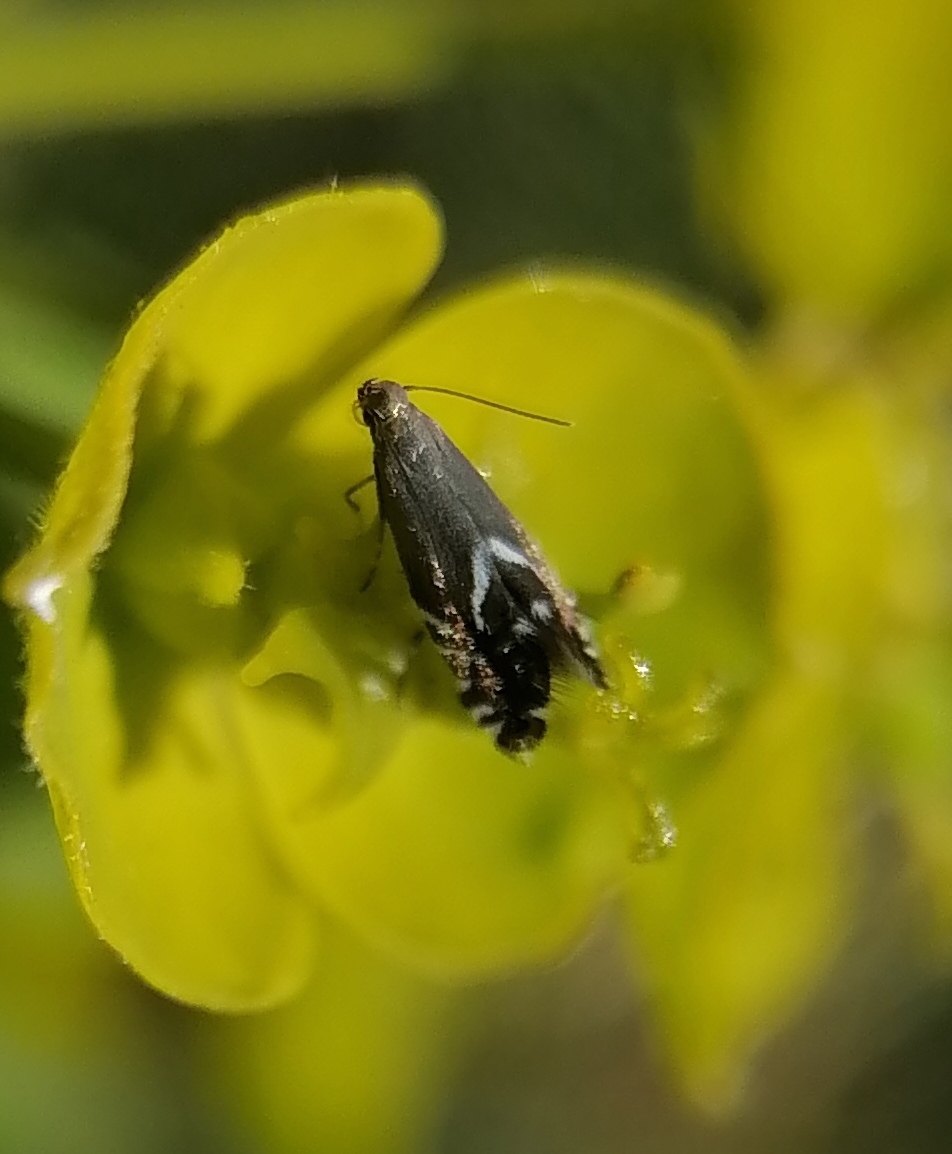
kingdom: Animalia
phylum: Arthropoda
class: Insecta
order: Lepidoptera
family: Glyphipterigidae
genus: Glyphipterix
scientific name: Glyphipterix simpliciella
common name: Cocksfoot moth
